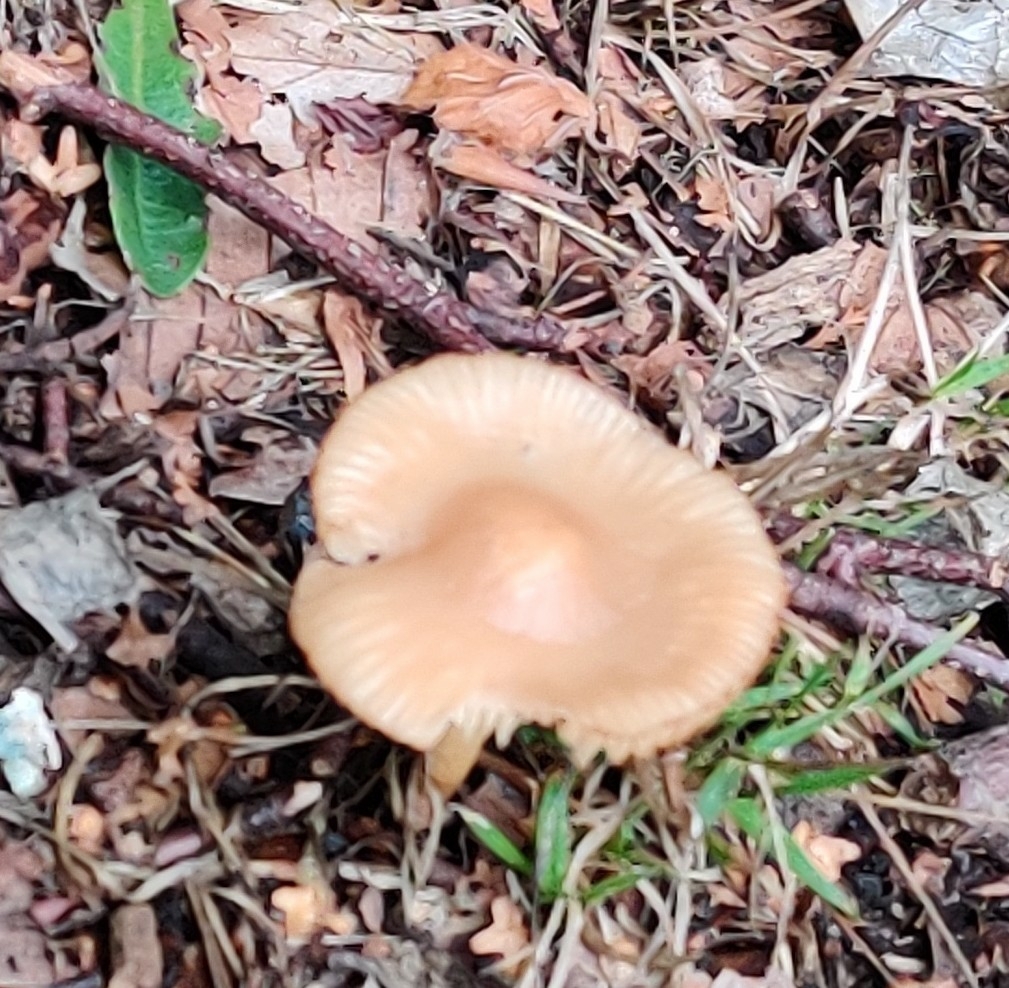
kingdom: Fungi
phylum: Basidiomycota
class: Agaricomycetes
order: Agaricales
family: Marasmiaceae
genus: Marasmius
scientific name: Marasmius oreades
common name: Fairy ring champignon
